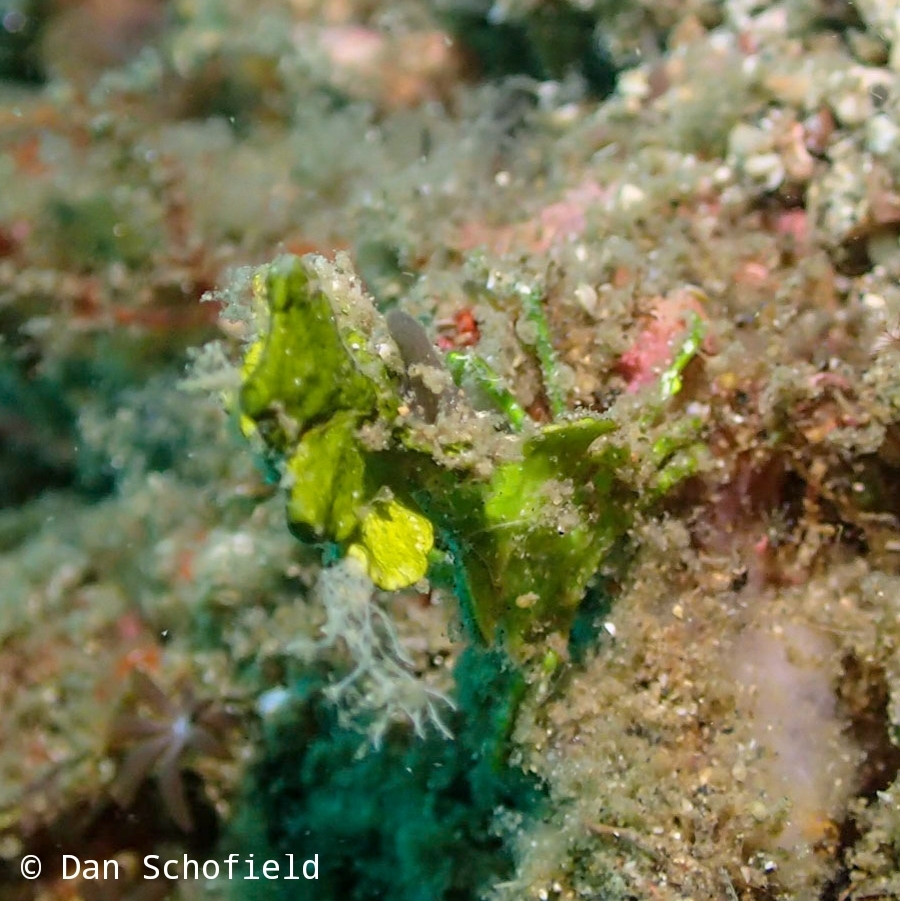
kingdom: Animalia
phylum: Arthropoda
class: Malacostraca
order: Decapoda
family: Epialtidae
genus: Huenia
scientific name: Huenia heraldica
